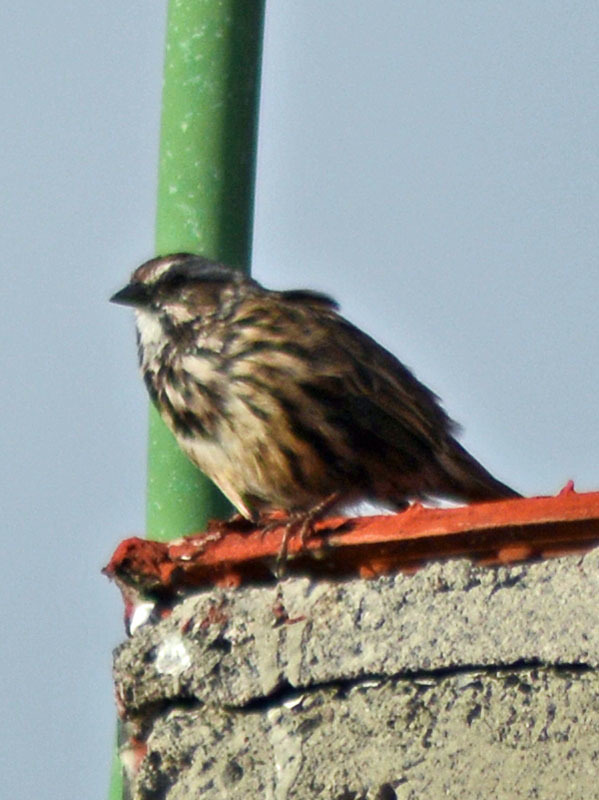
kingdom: Animalia
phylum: Chordata
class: Aves
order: Passeriformes
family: Passerellidae
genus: Melospiza
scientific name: Melospiza melodia
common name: Song sparrow
